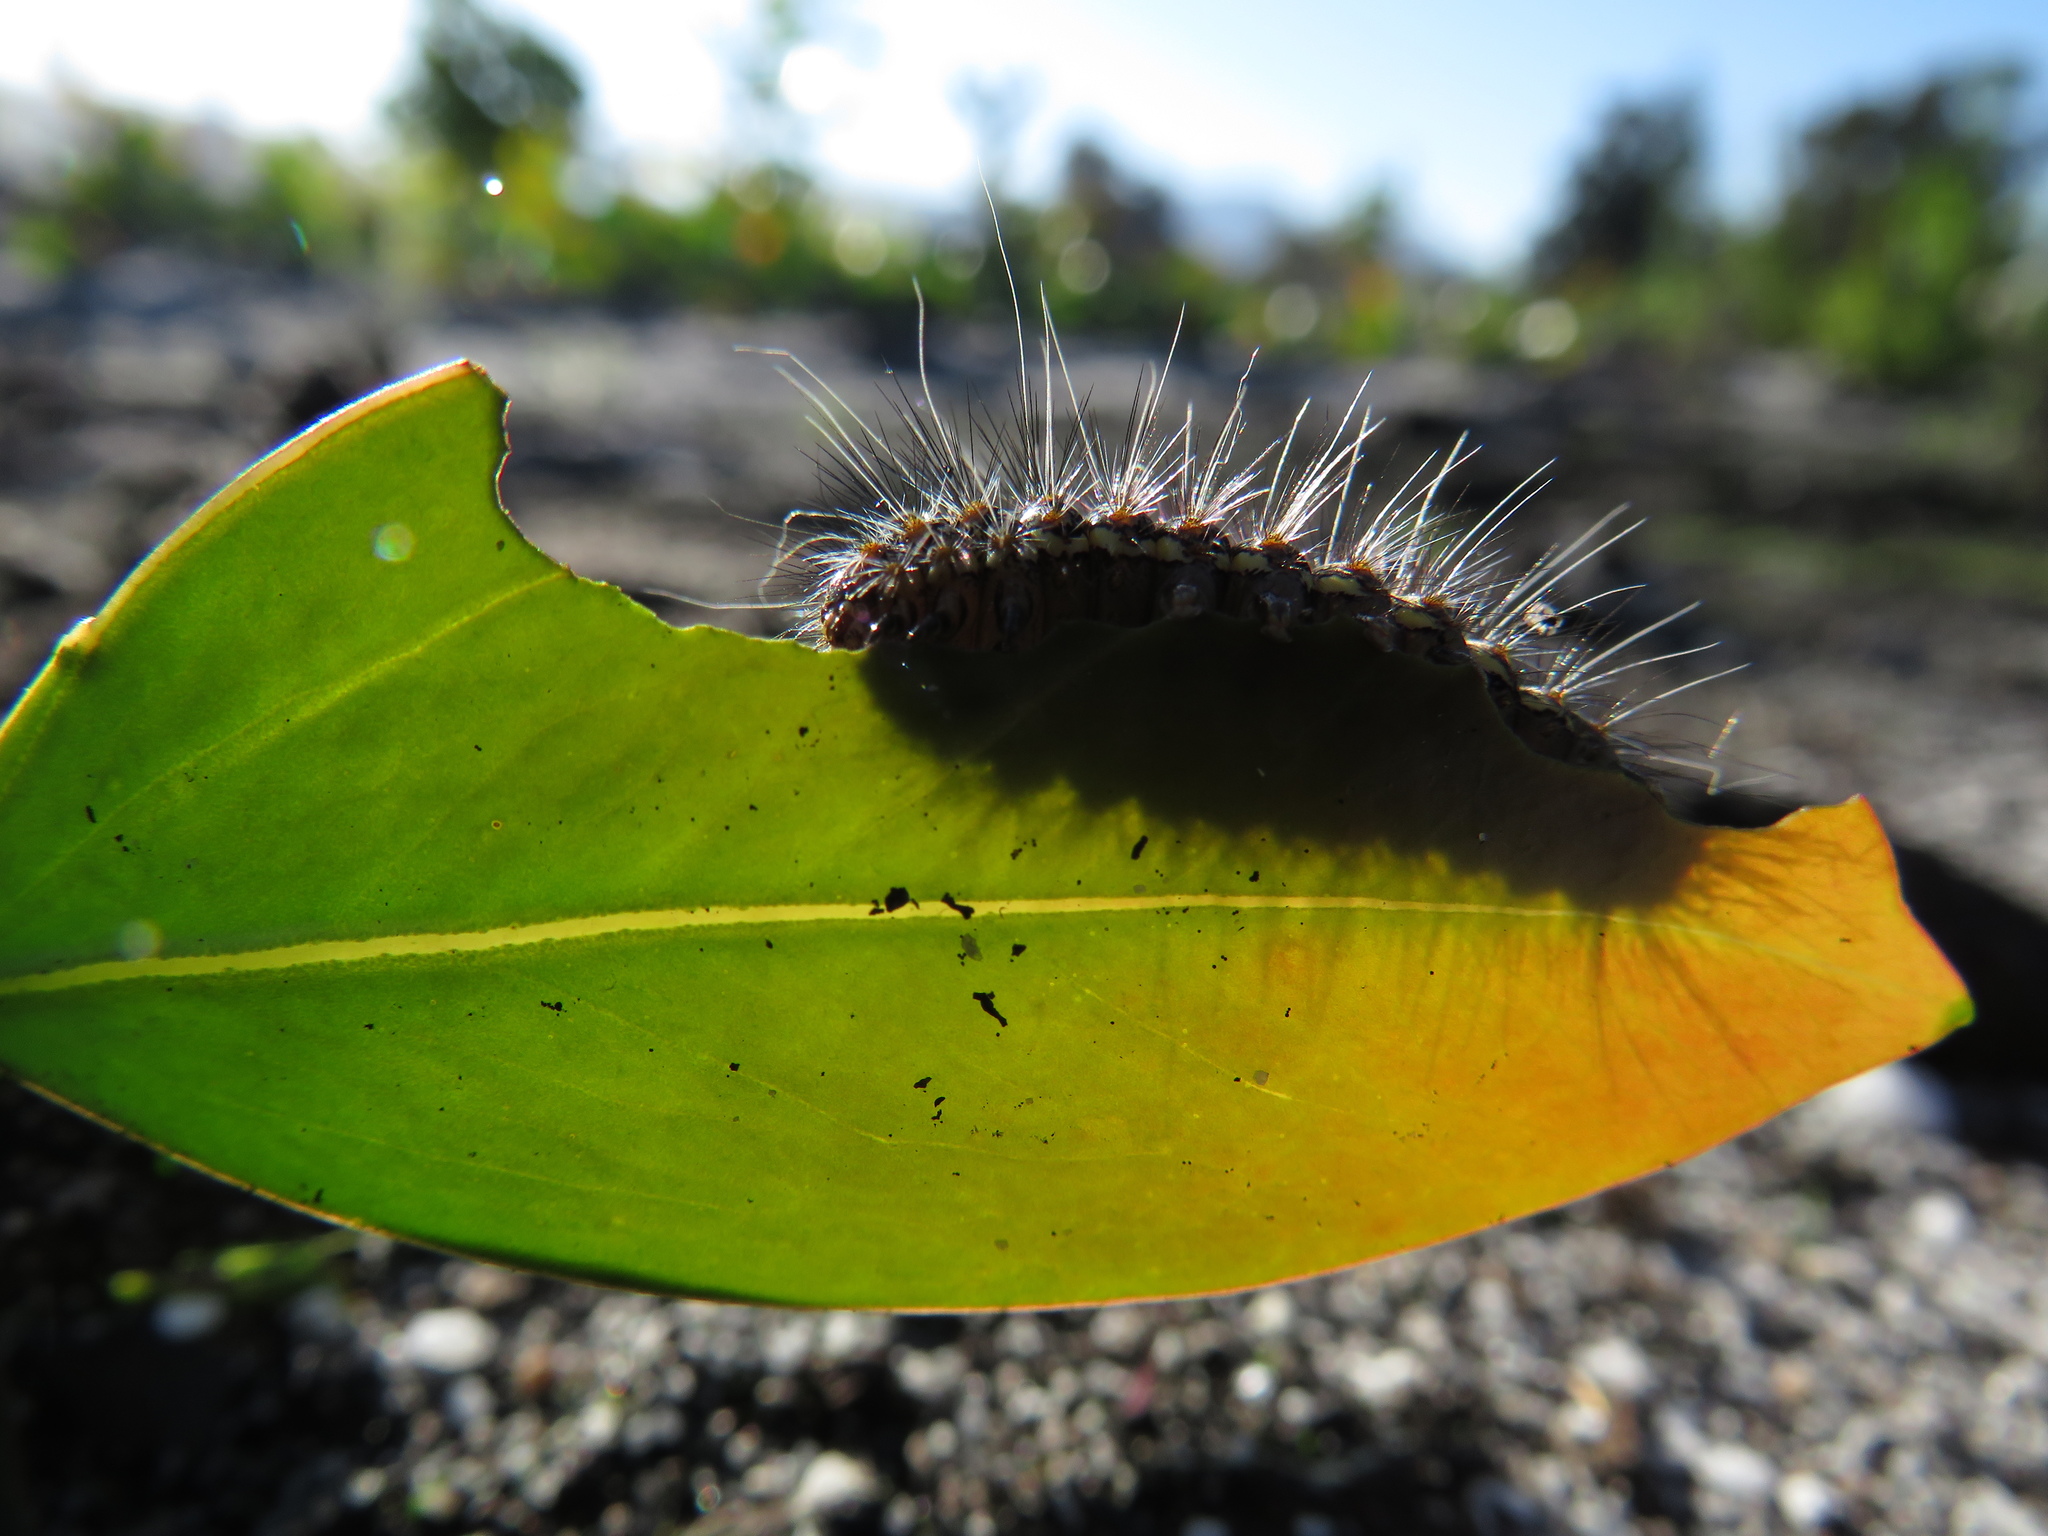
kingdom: Animalia
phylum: Arthropoda
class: Insecta
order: Lepidoptera
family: Erebidae
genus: Paralacydes
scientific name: Paralacydes vocula
